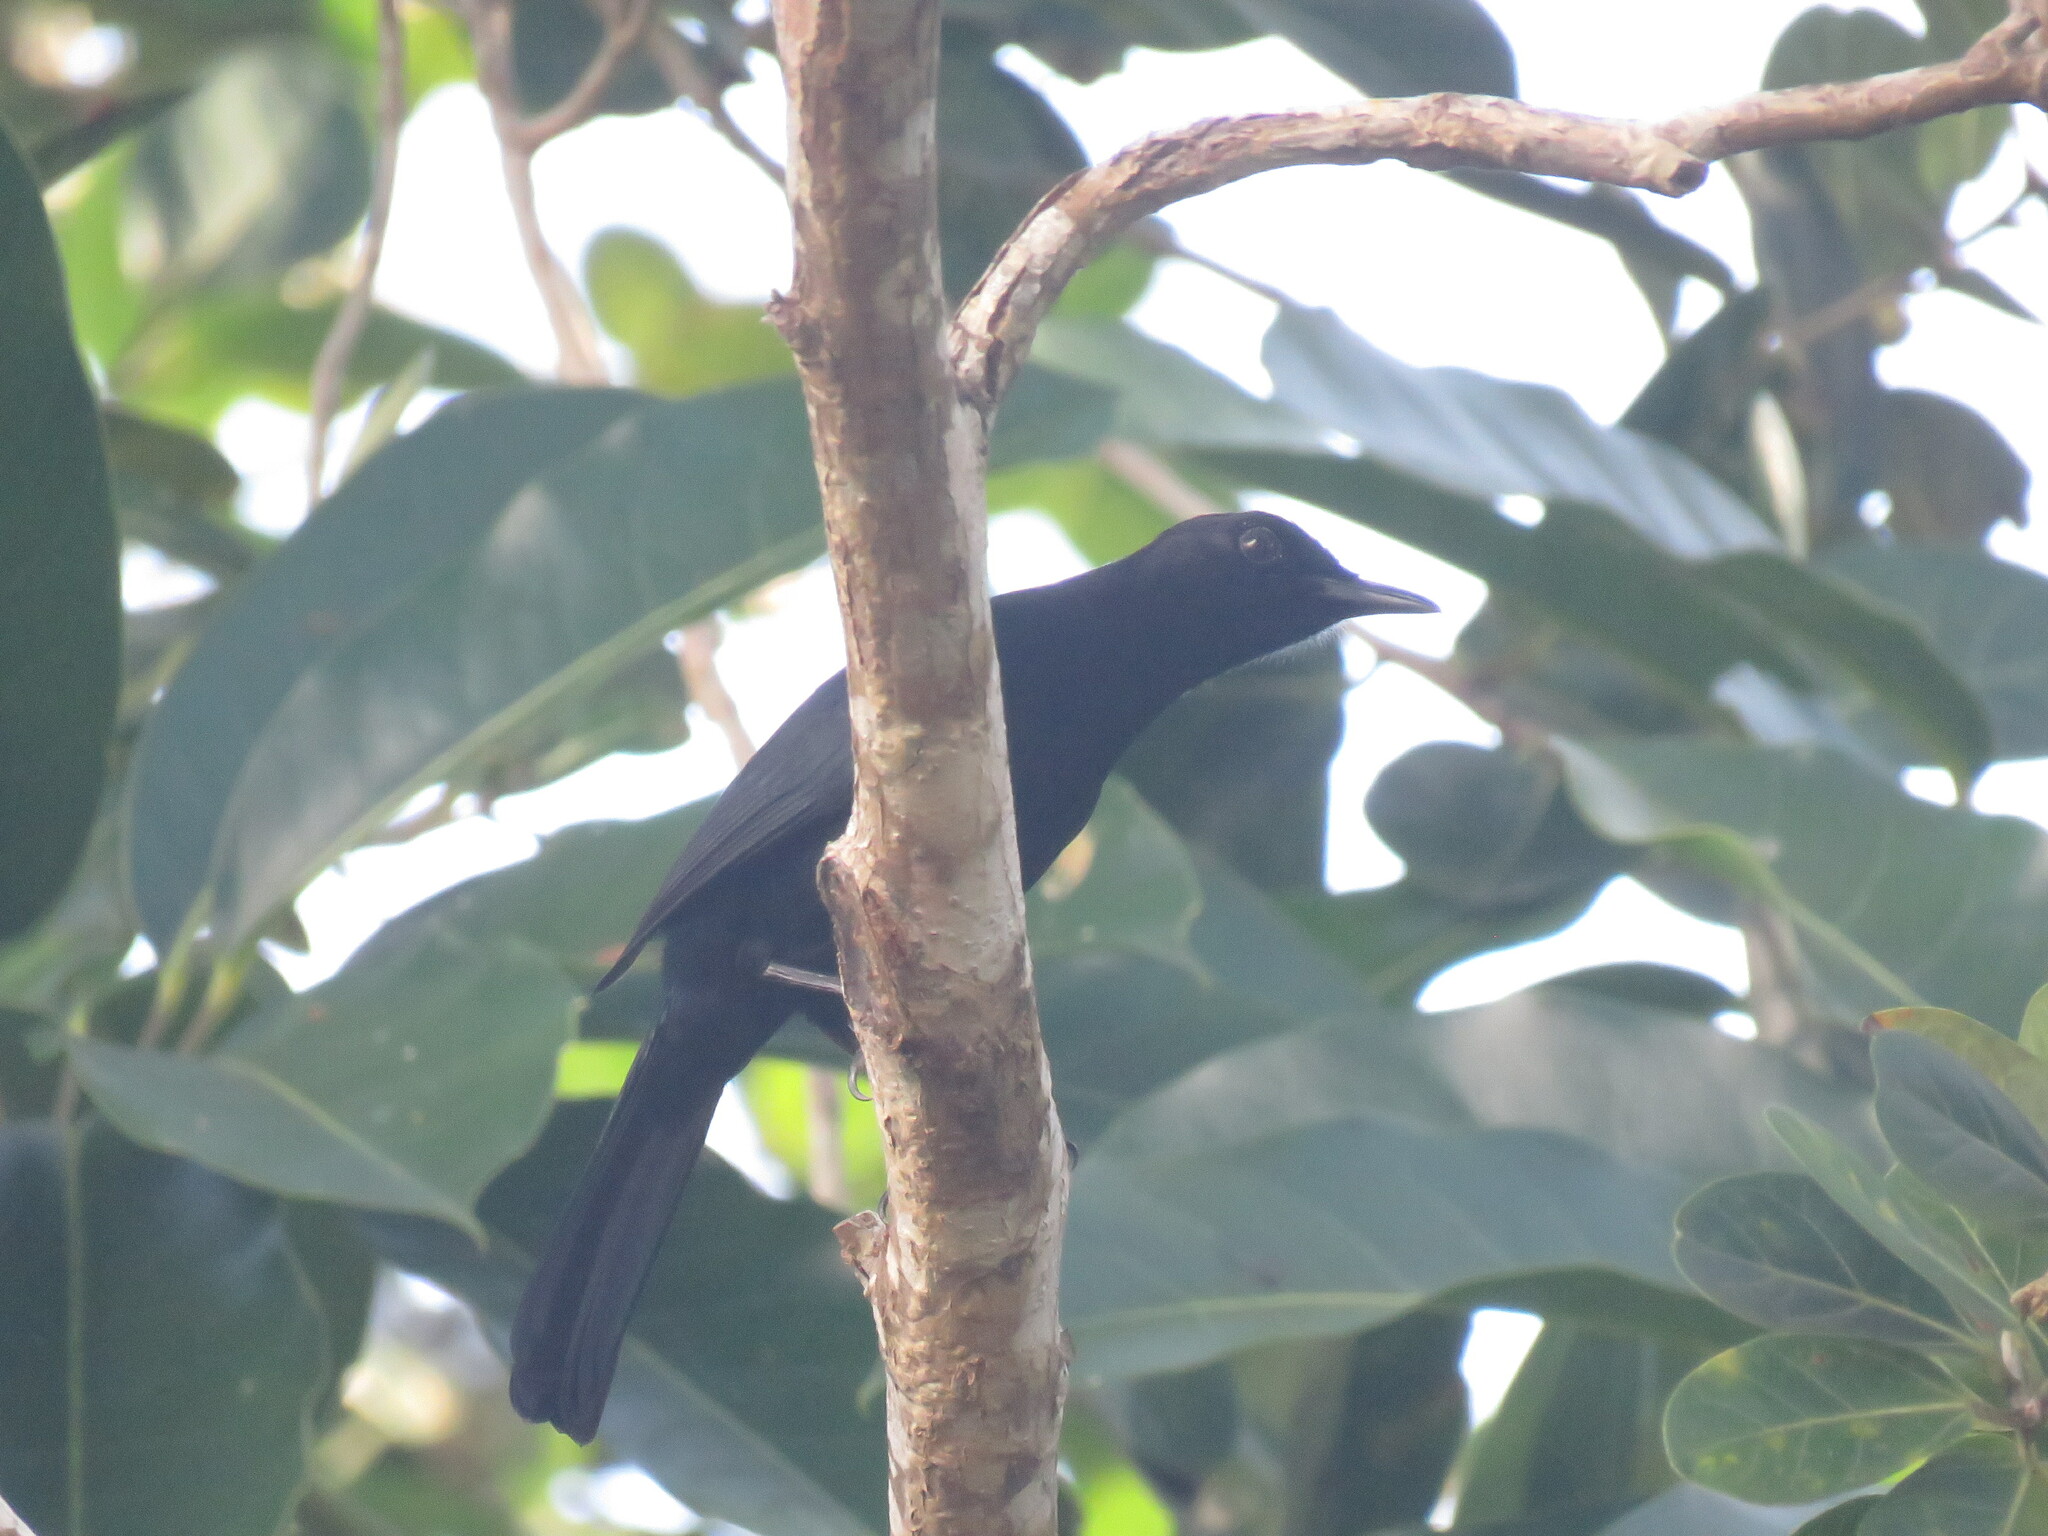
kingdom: Animalia
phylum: Chordata
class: Aves
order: Passeriformes
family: Mimidae
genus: Melanoptila
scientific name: Melanoptila glabrirostris
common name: Black catbird
